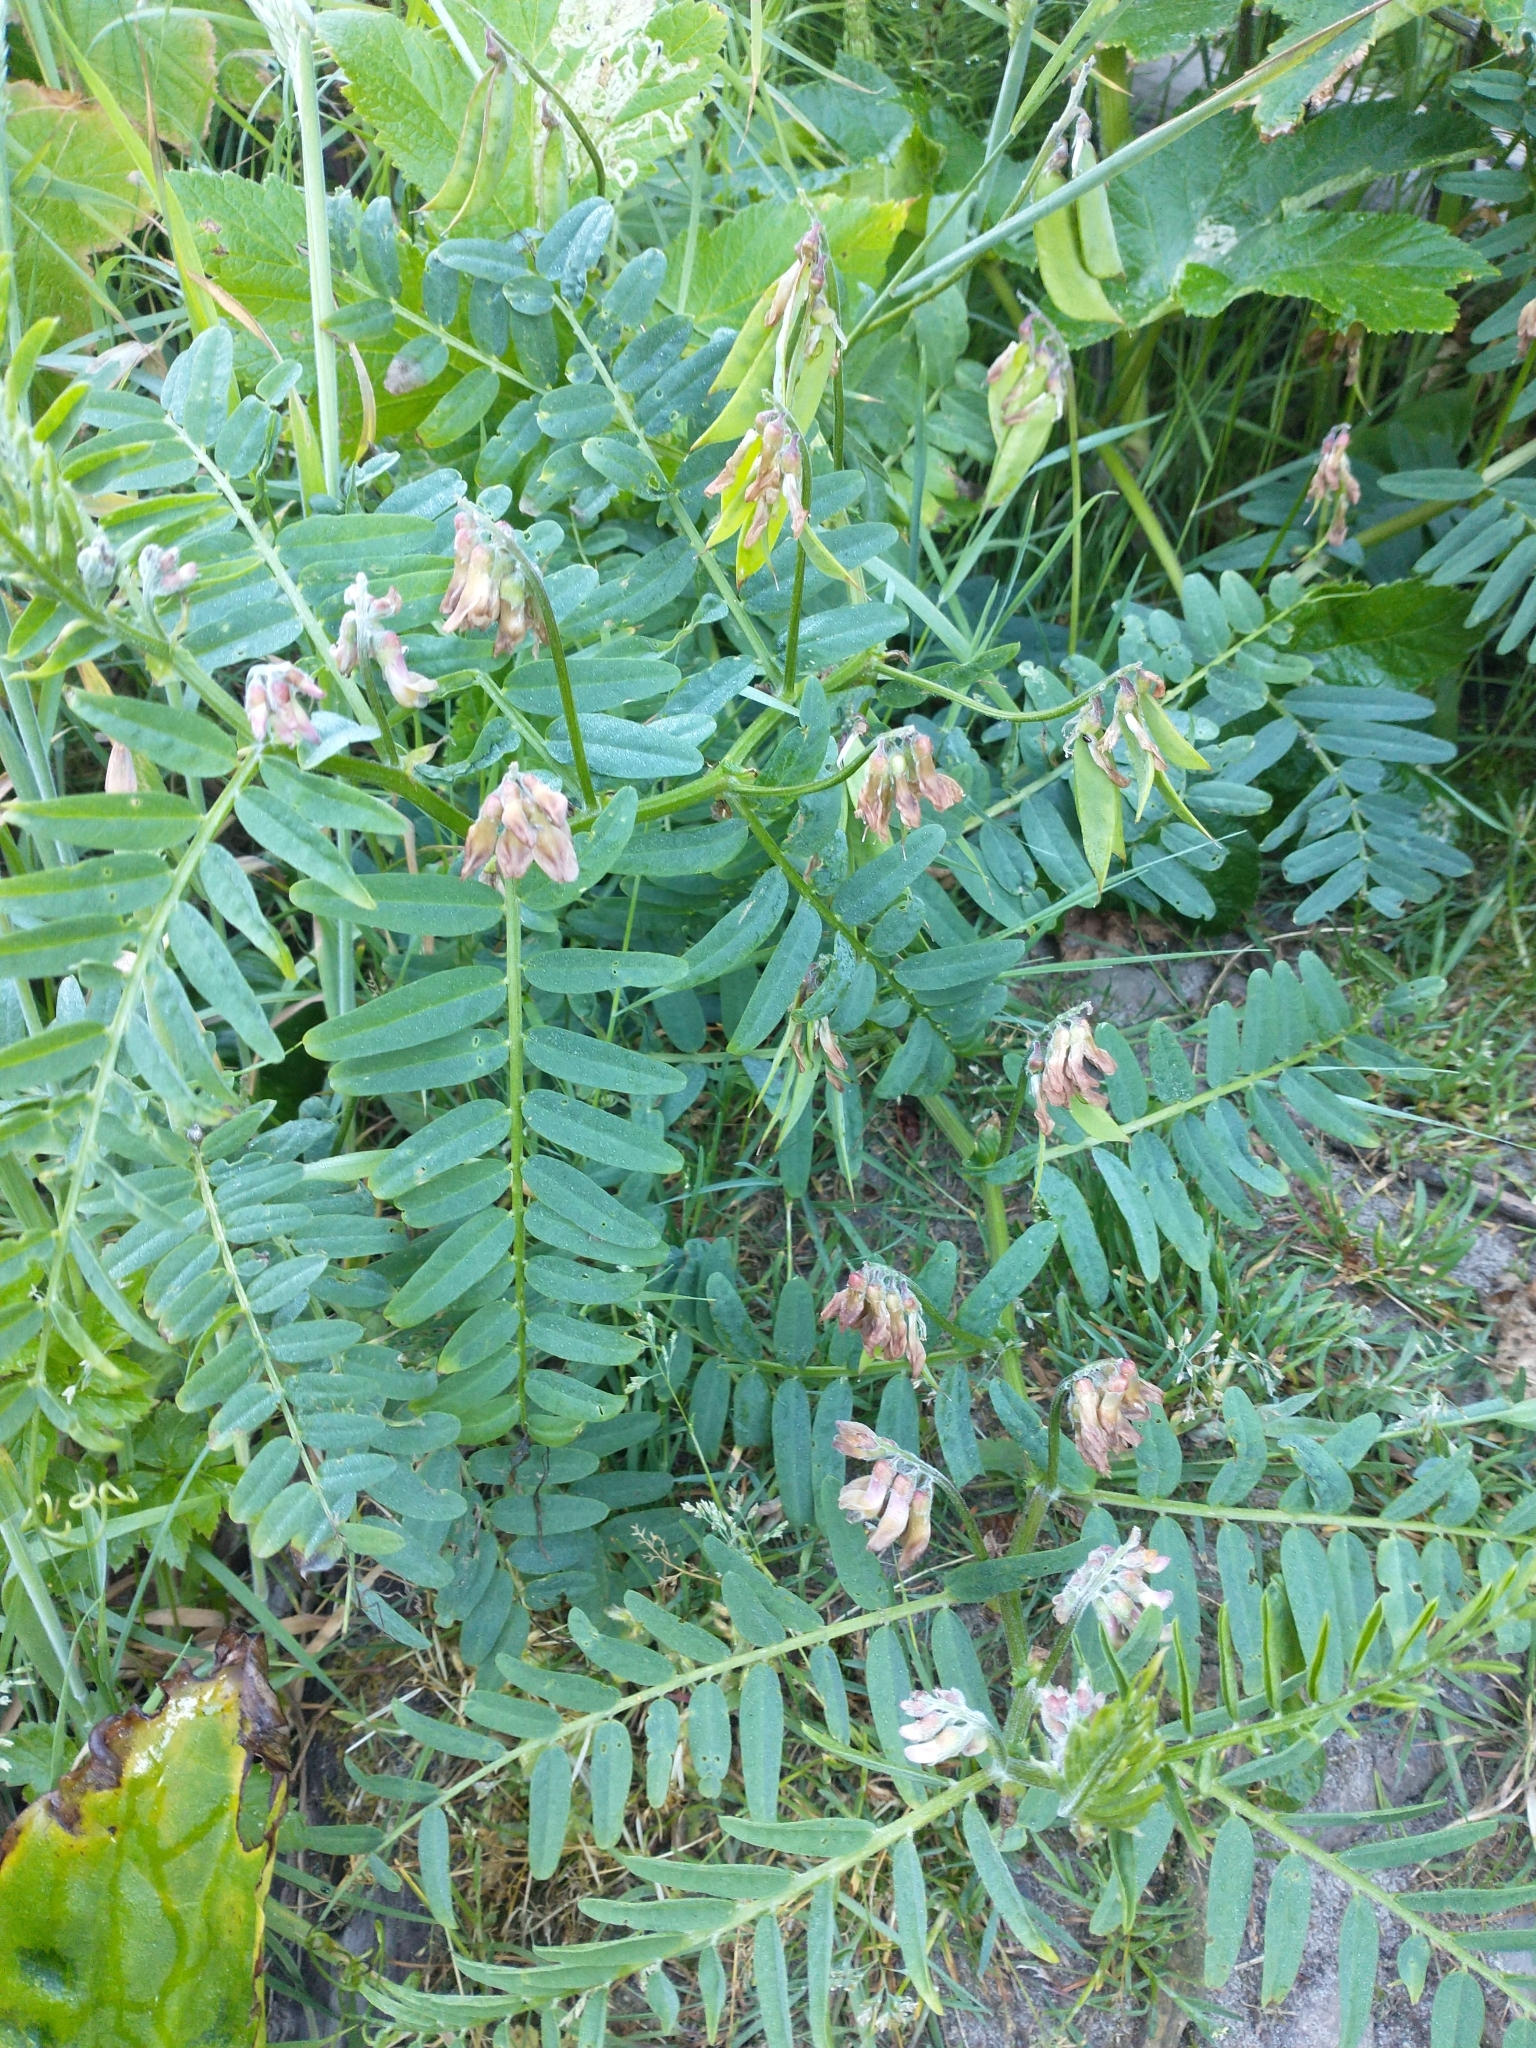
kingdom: Plantae
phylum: Tracheophyta
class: Magnoliopsida
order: Fabales
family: Fabaceae
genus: Vicia
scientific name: Vicia
